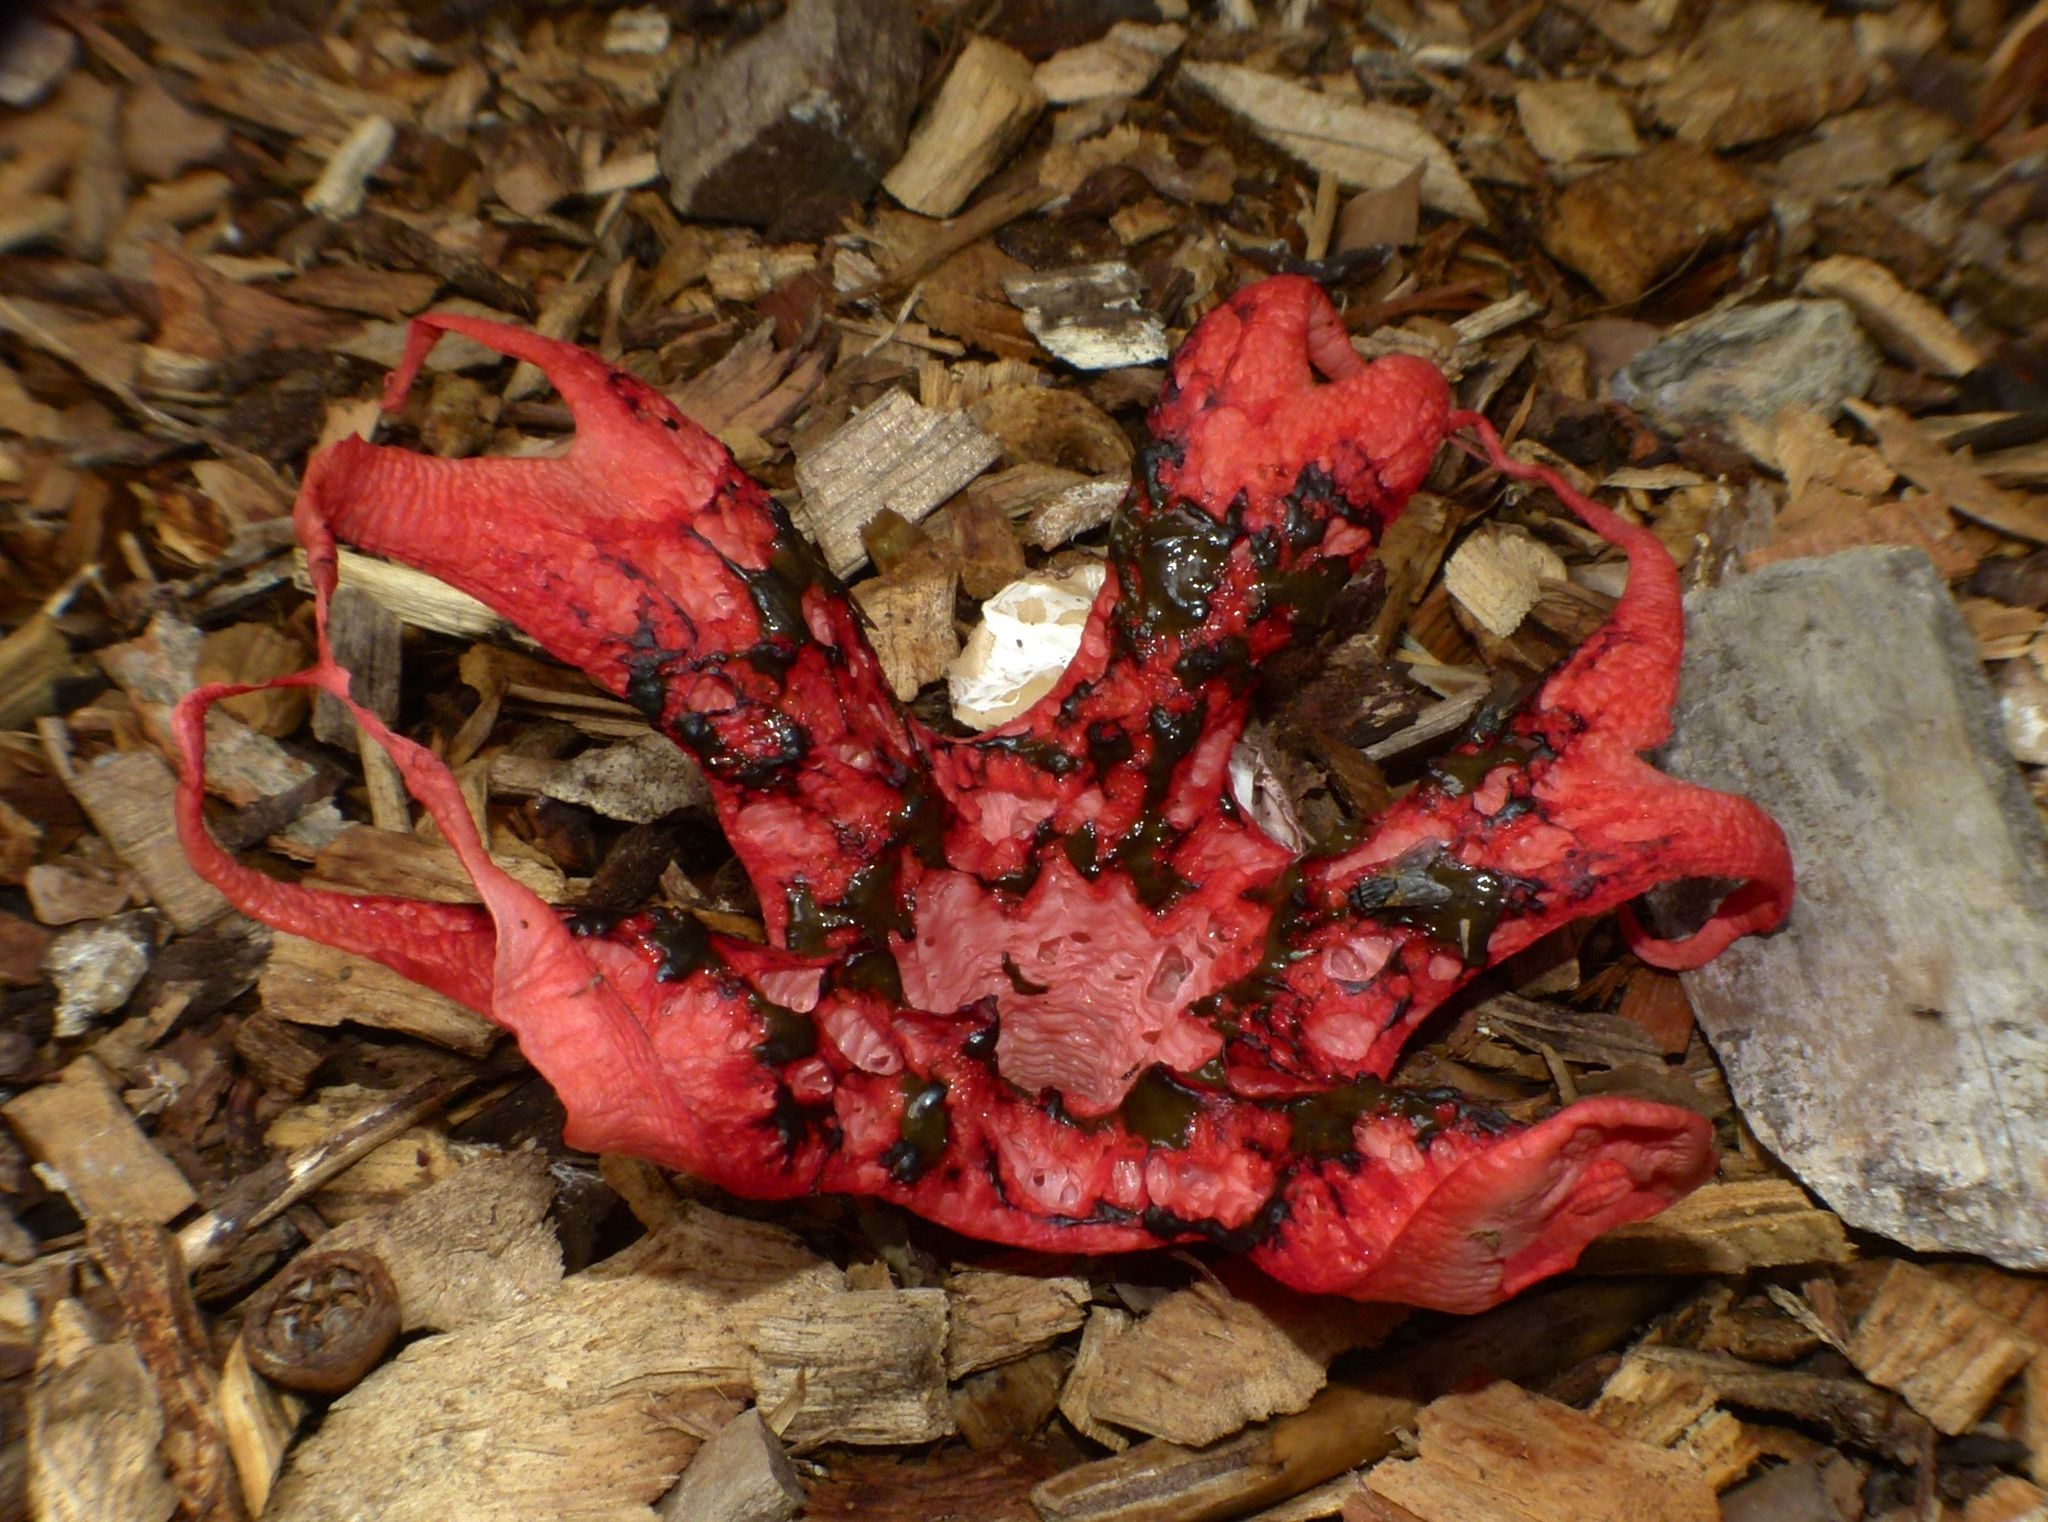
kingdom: Fungi
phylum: Basidiomycota
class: Agaricomycetes
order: Phallales
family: Phallaceae
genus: Clathrus
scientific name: Clathrus archeri
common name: Devil's fingers
